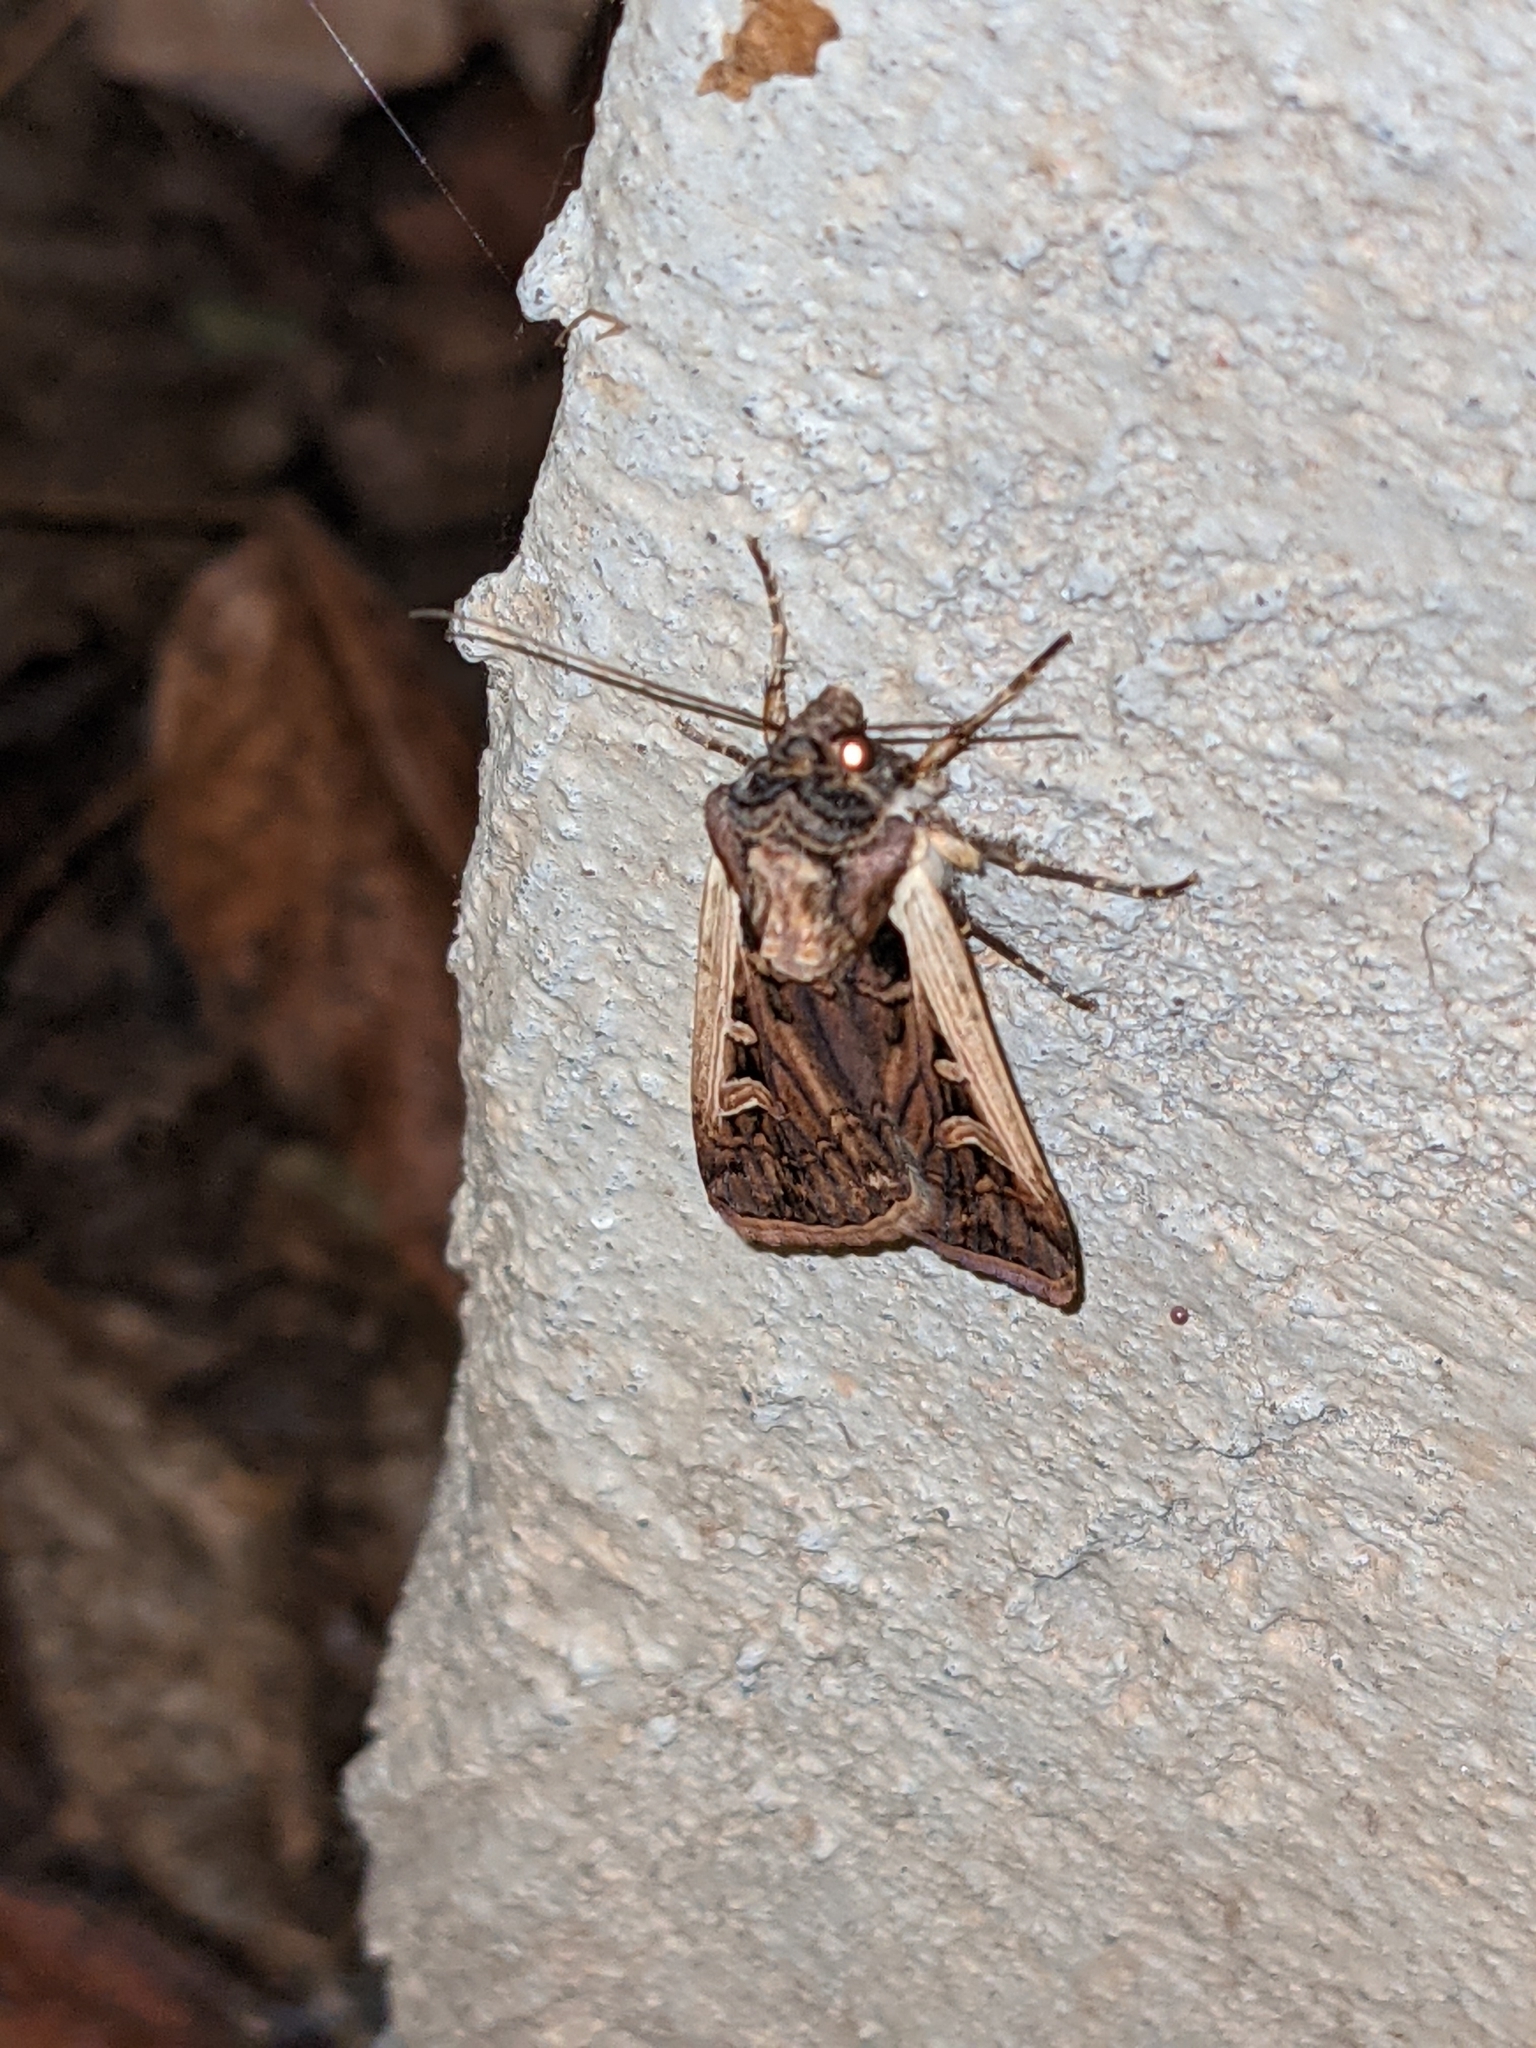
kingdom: Animalia
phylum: Arthropoda
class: Insecta
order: Lepidoptera
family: Noctuidae
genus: Striacosta
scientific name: Striacosta albicosta
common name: Western bean cutworm moth
